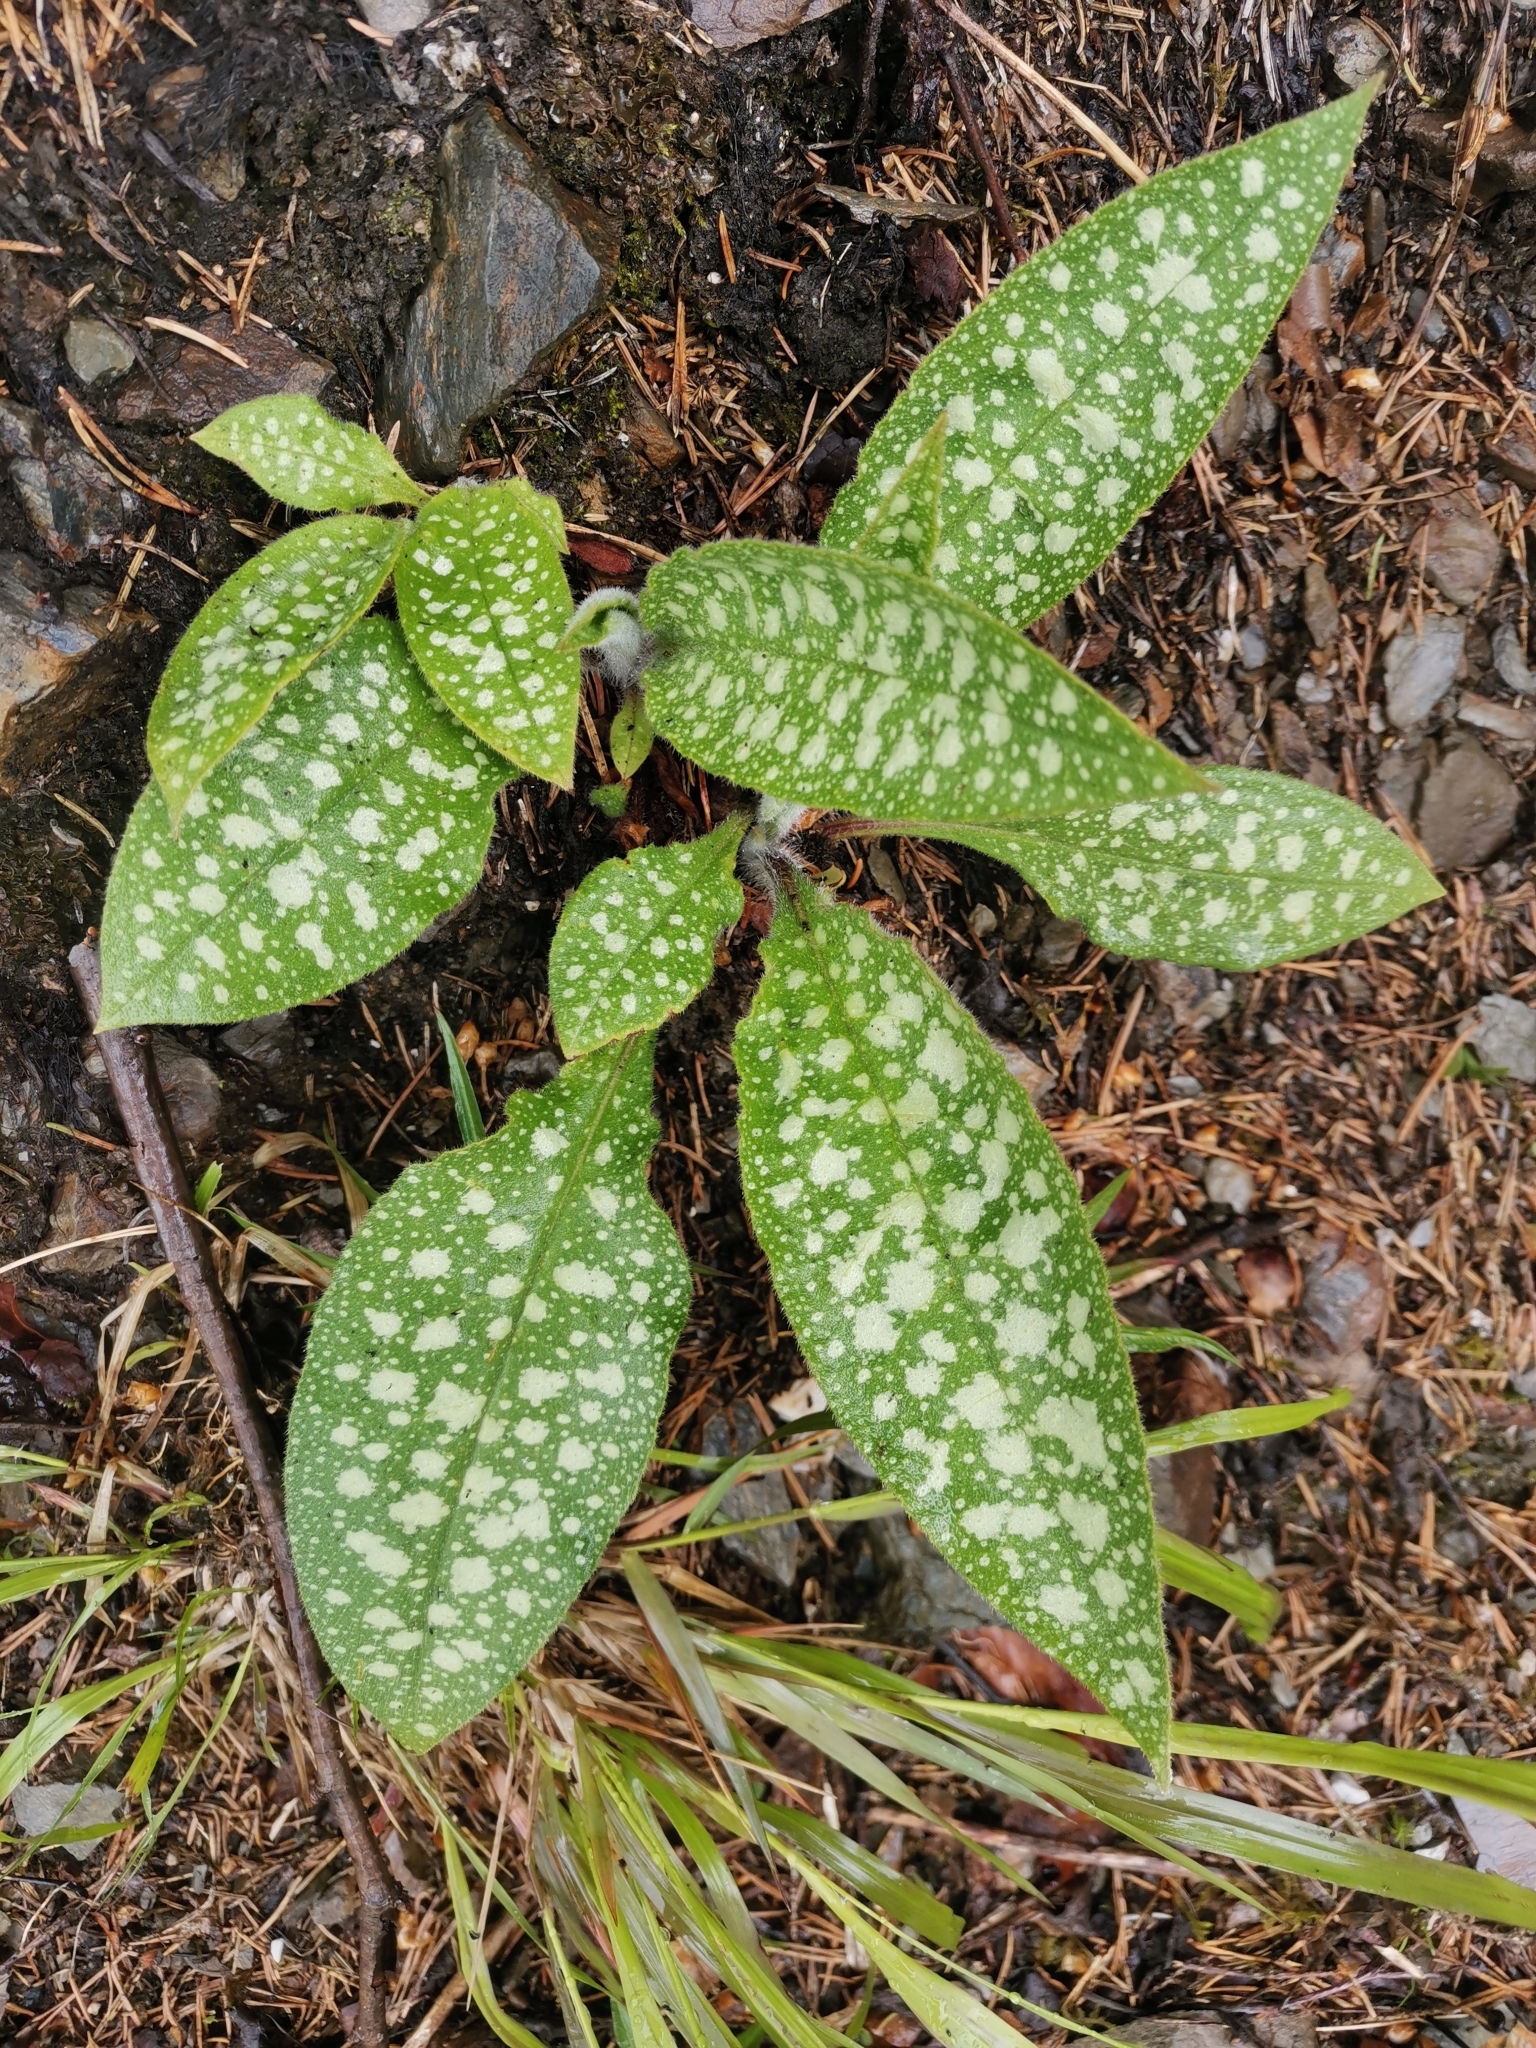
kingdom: Plantae
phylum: Tracheophyta
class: Magnoliopsida
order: Boraginales
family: Boraginaceae
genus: Pulmonaria
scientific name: Pulmonaria stiriaca
